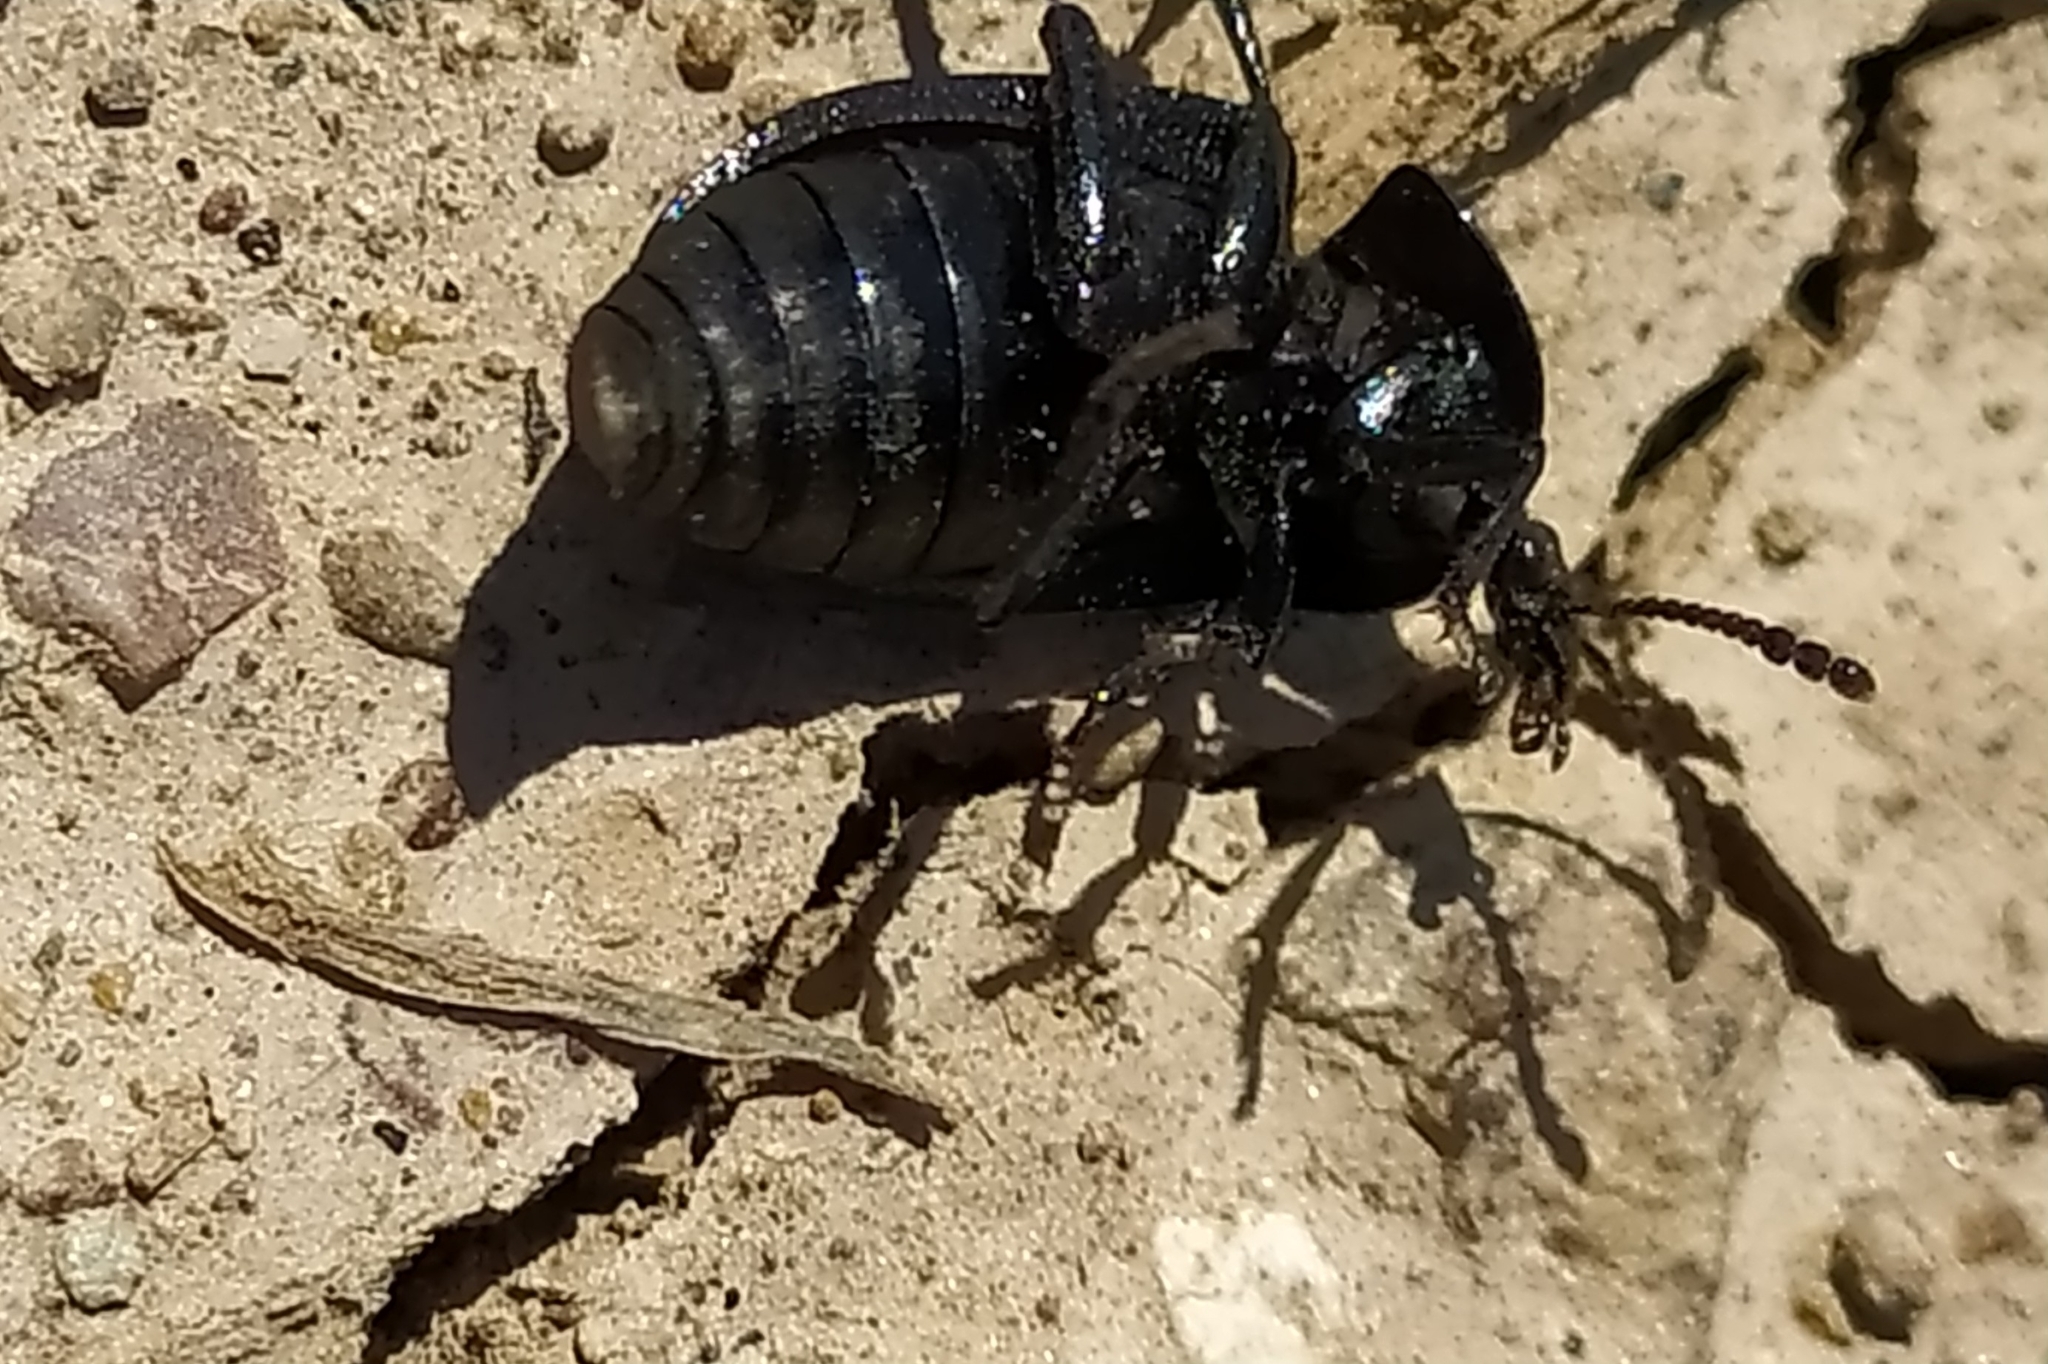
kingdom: Animalia
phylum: Arthropoda
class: Insecta
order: Coleoptera
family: Staphylinidae
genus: Silpha
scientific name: Silpha atrata
